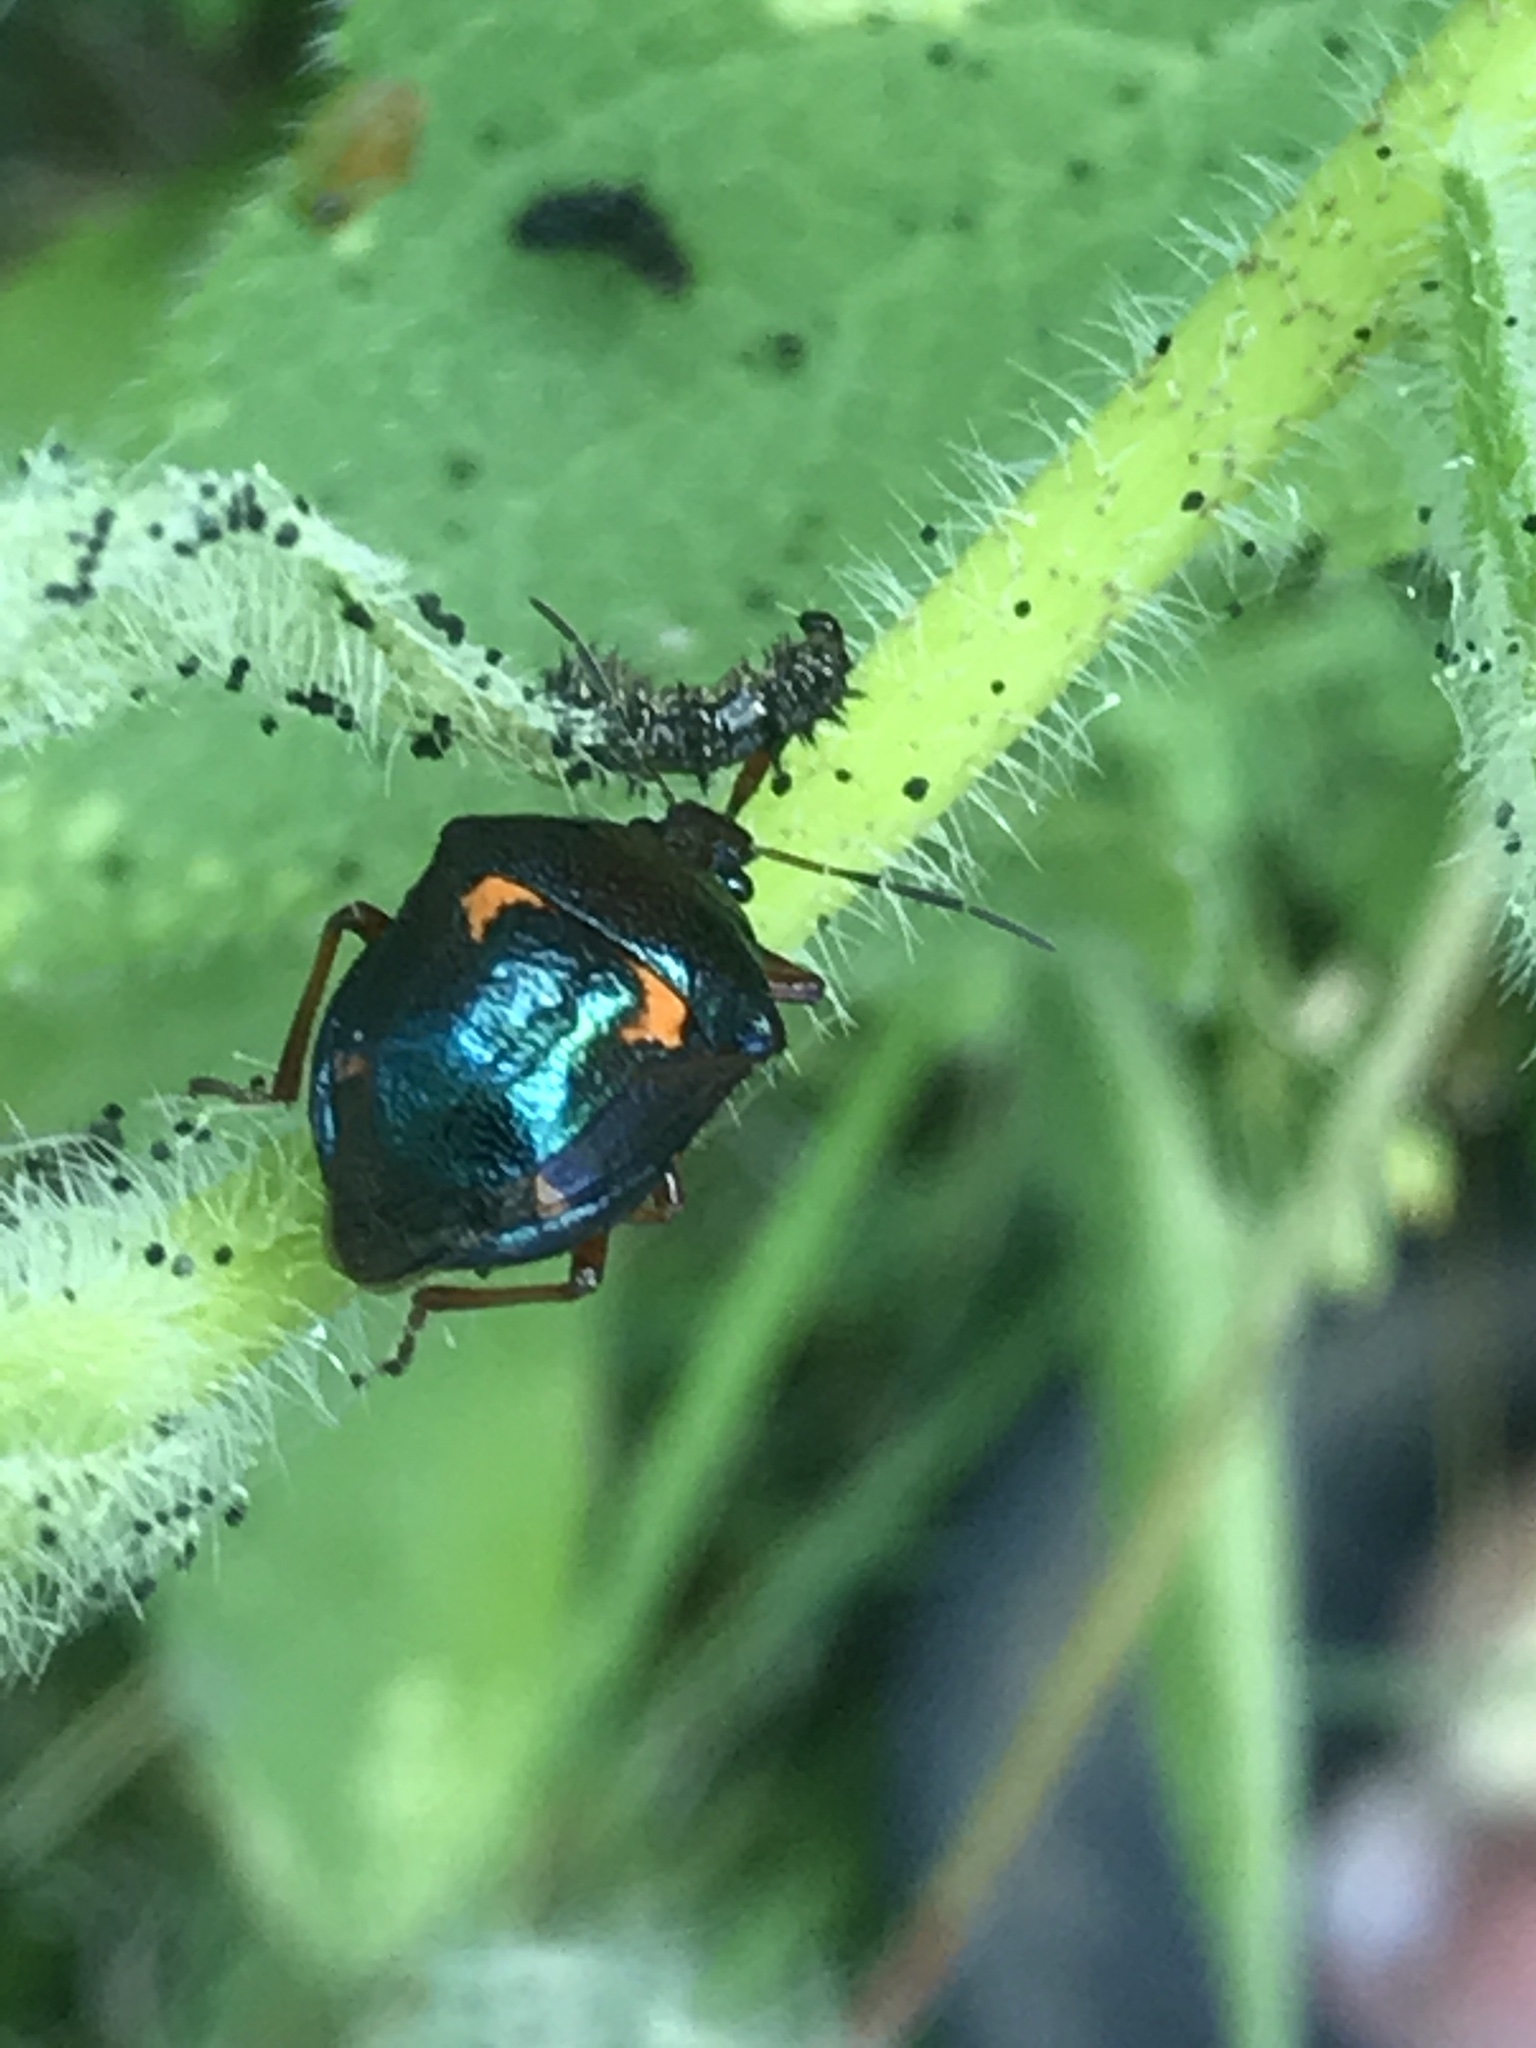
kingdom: Animalia
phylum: Arthropoda
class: Insecta
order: Hemiptera
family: Pentatomidae
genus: Stiretrus
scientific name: Stiretrus anchorago
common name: Anchor stink bug
